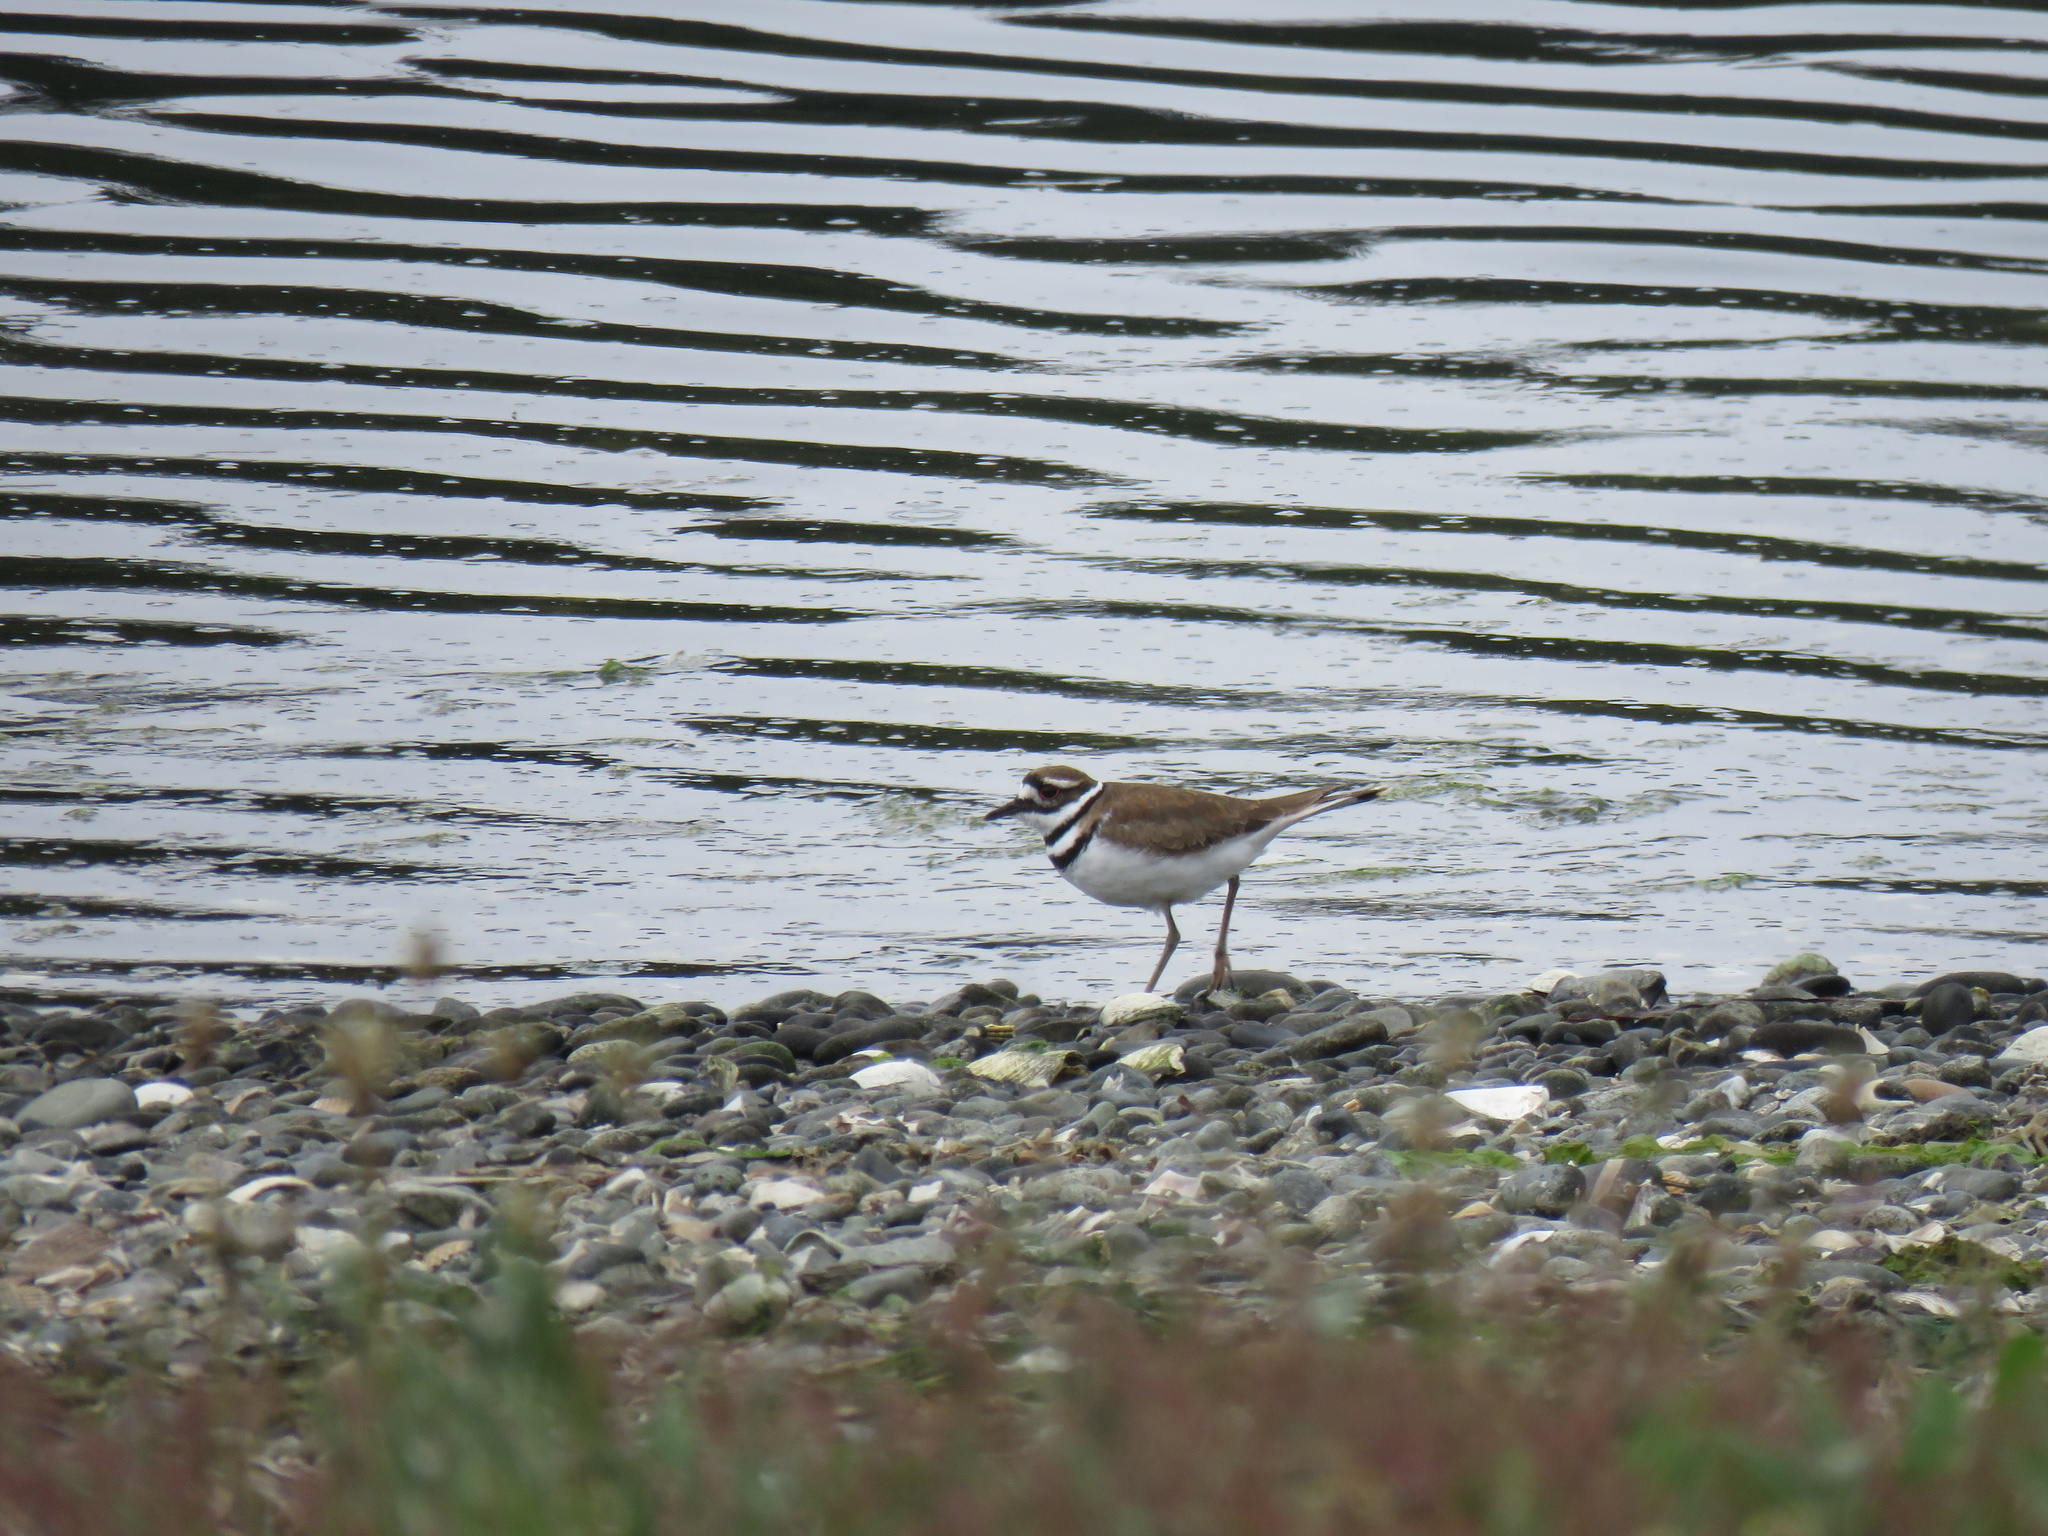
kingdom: Animalia
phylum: Chordata
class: Aves
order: Charadriiformes
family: Charadriidae
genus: Charadrius
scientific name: Charadrius vociferus
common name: Killdeer
